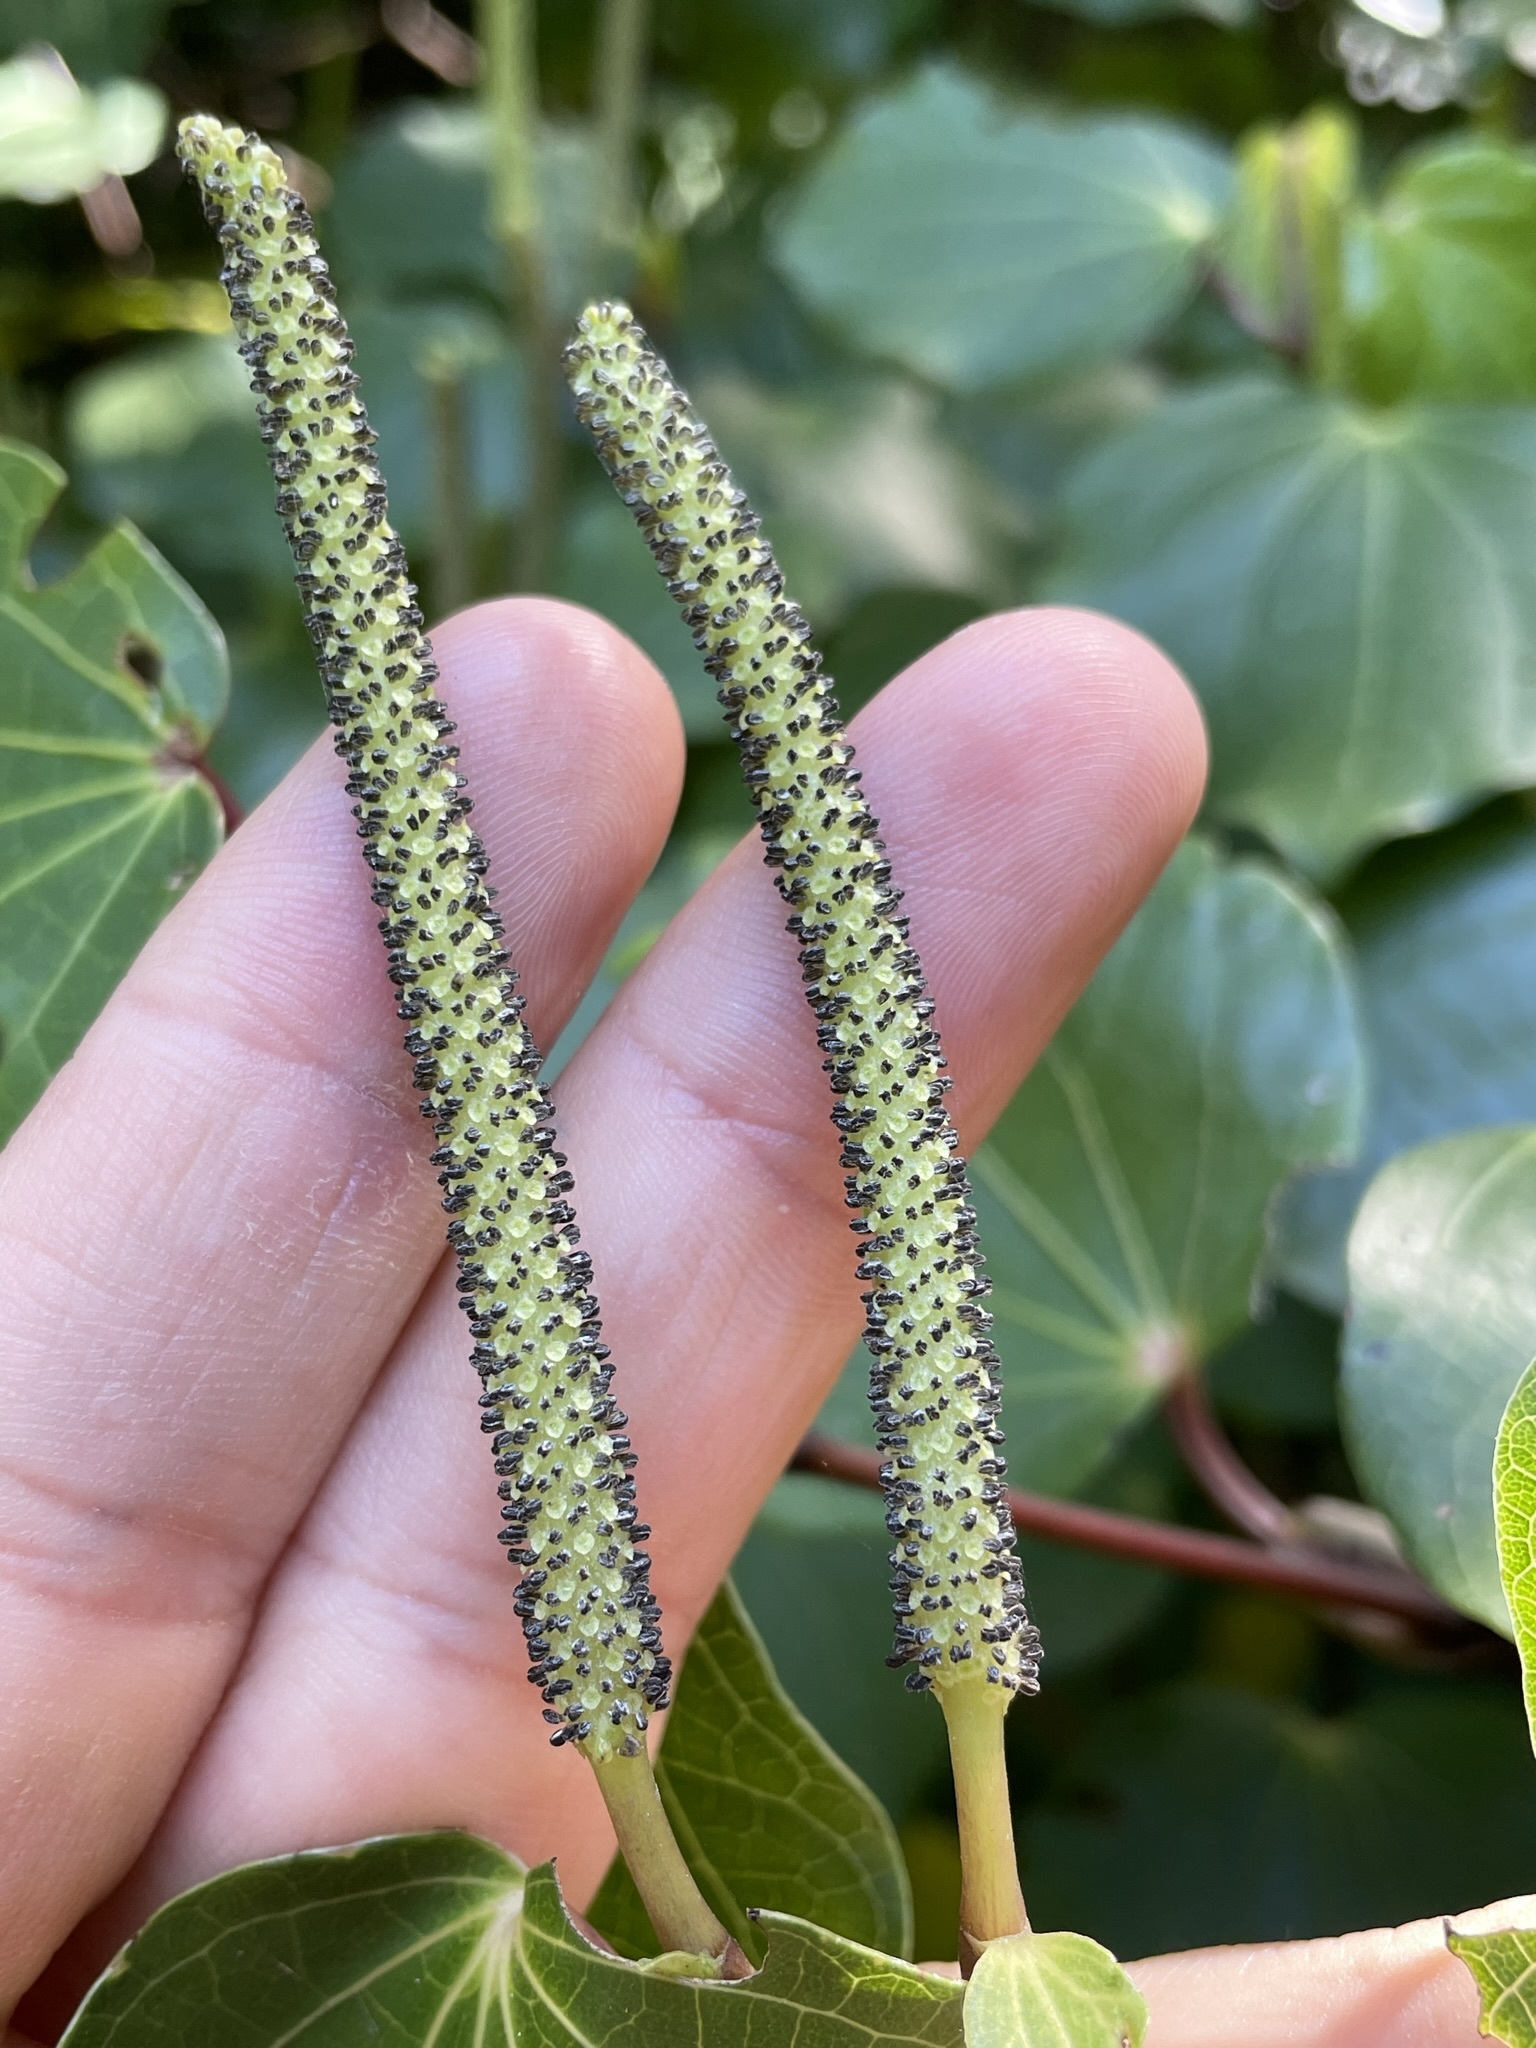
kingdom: Plantae
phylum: Tracheophyta
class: Magnoliopsida
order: Piperales
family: Piperaceae
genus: Macropiper
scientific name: Macropiper excelsum
